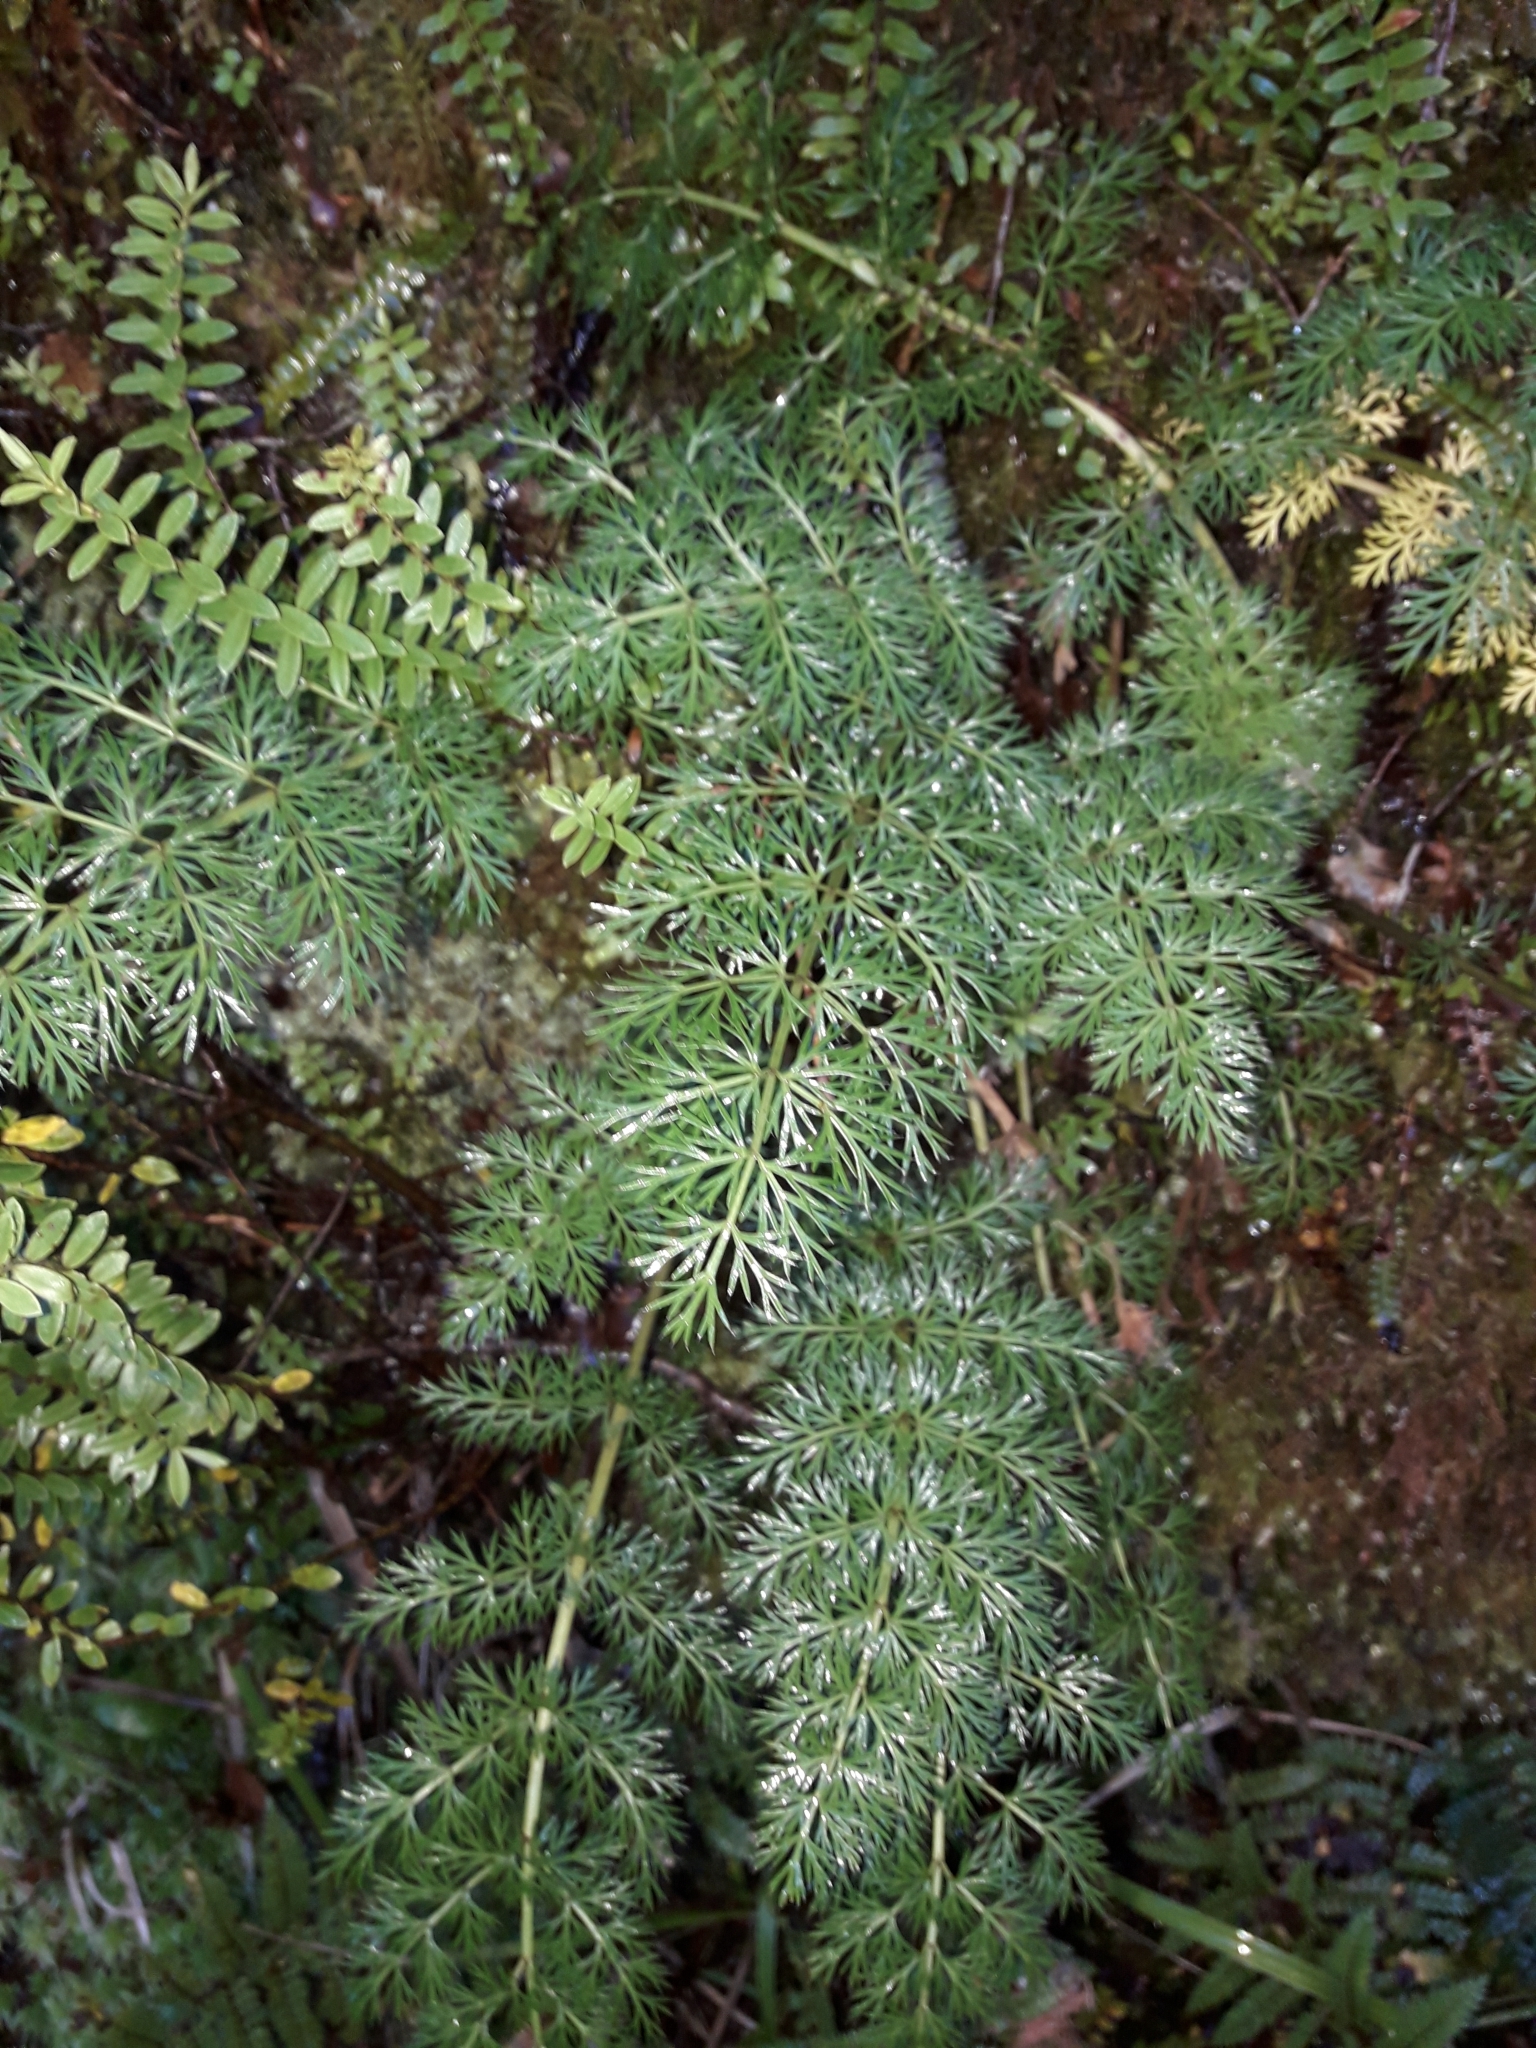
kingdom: Plantae
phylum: Tracheophyta
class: Magnoliopsida
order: Apiales
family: Apiaceae
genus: Anisotome
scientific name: Anisotome haastii
